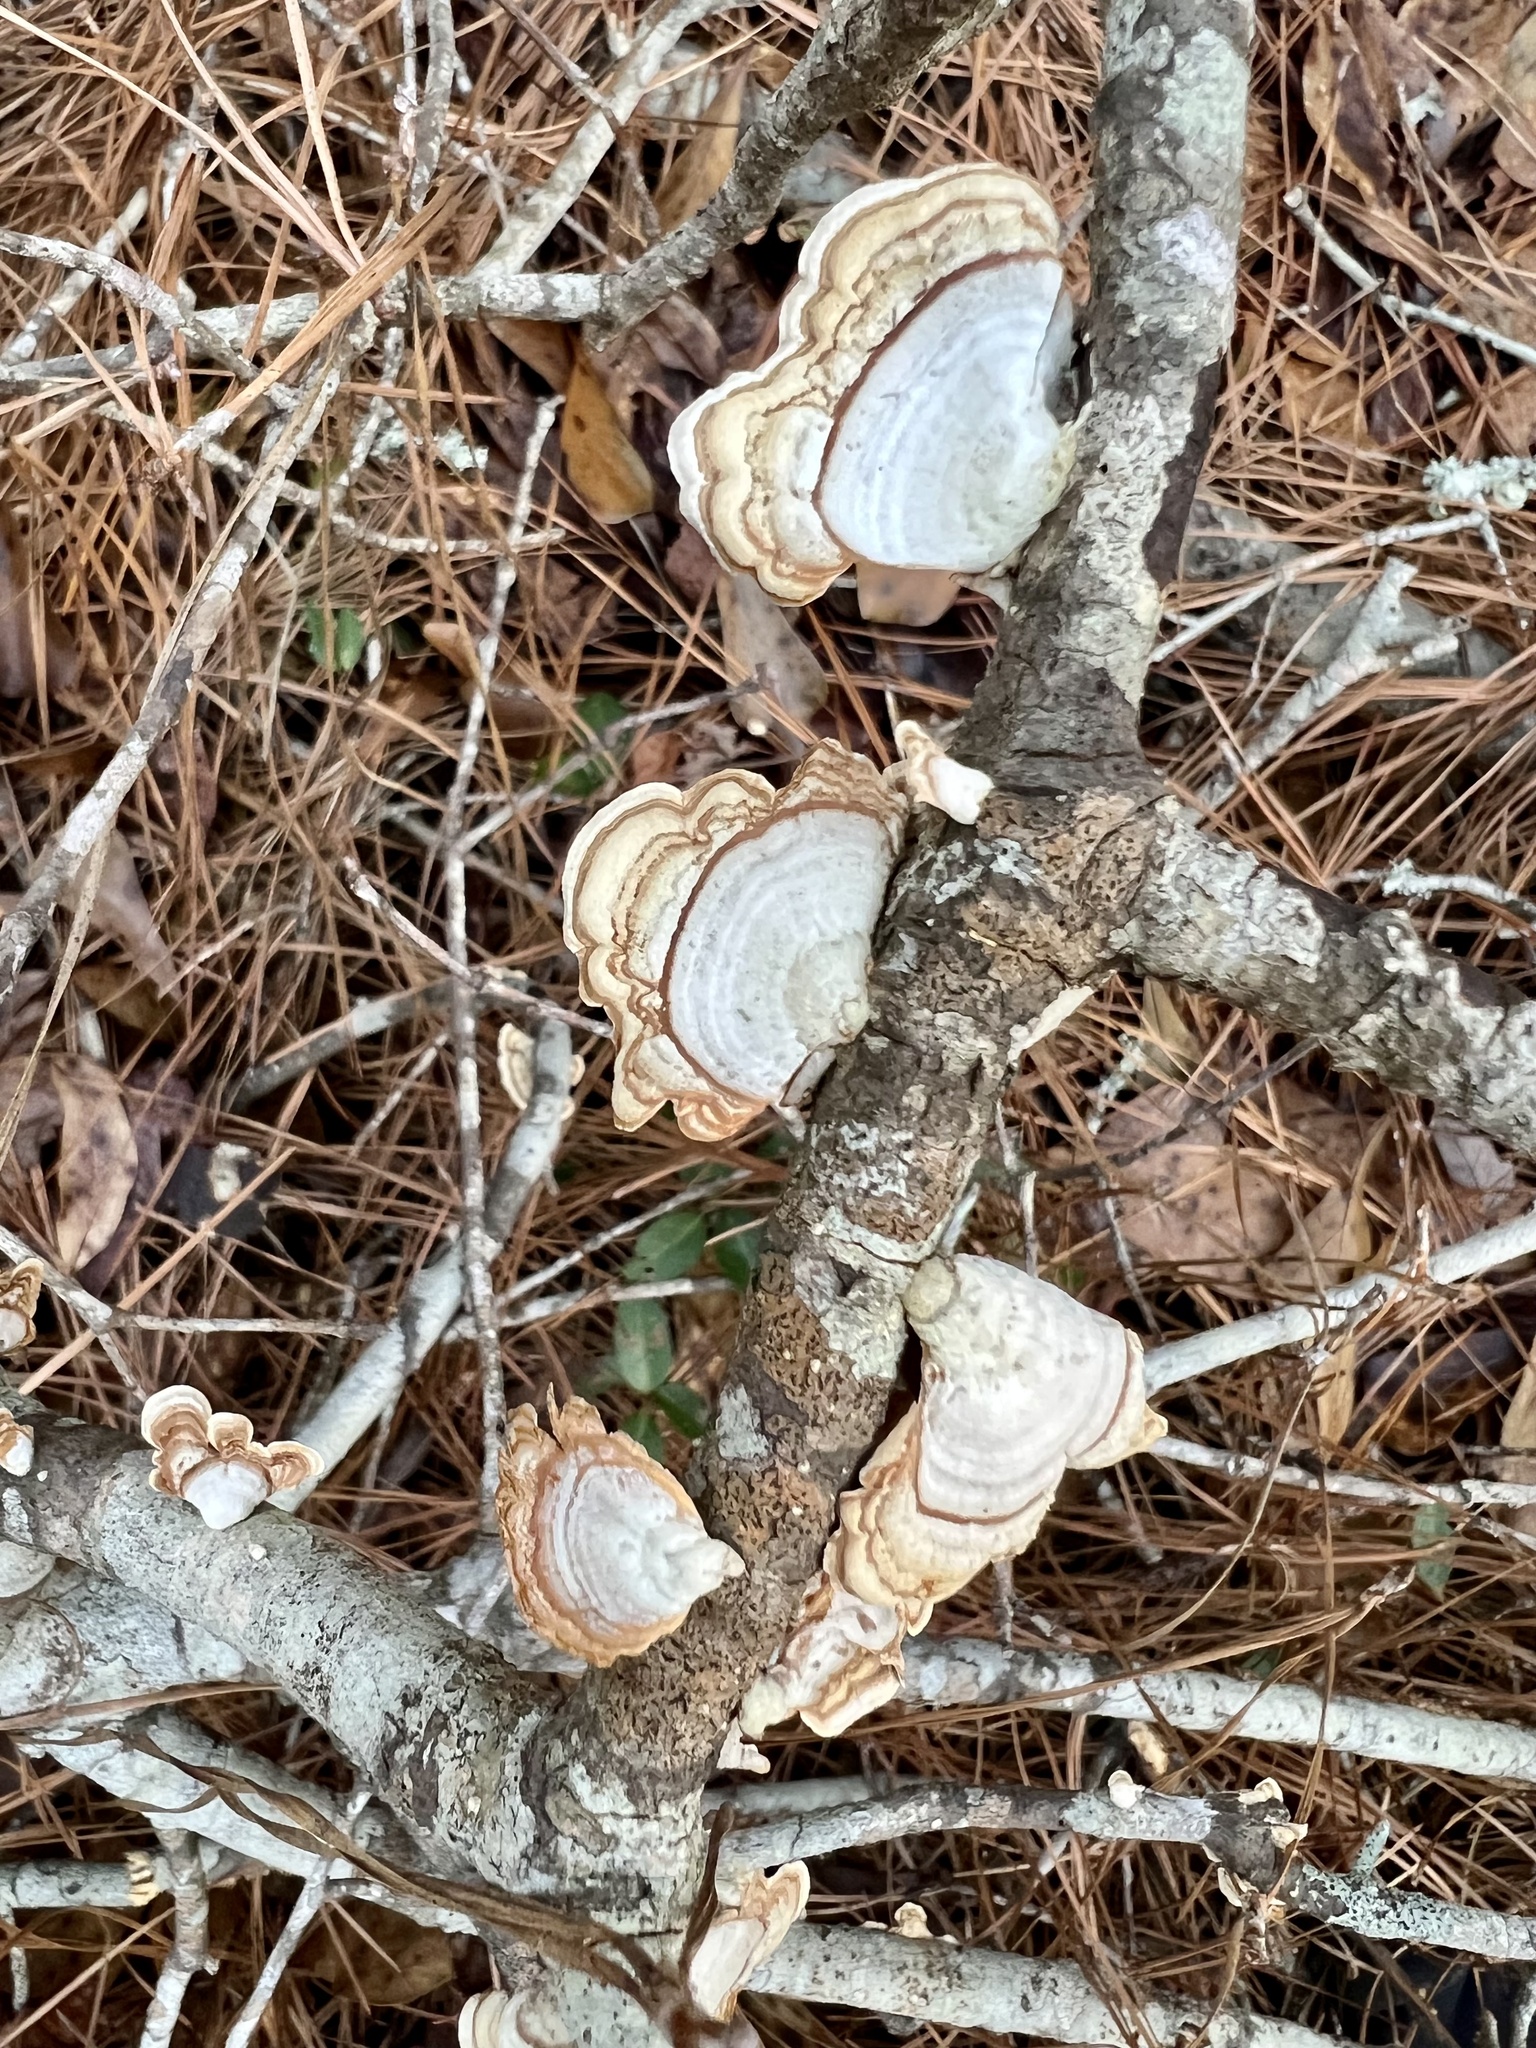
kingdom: Fungi
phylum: Basidiomycota
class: Agaricomycetes
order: Russulales
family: Stereaceae
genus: Stereum
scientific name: Stereum lobatum
